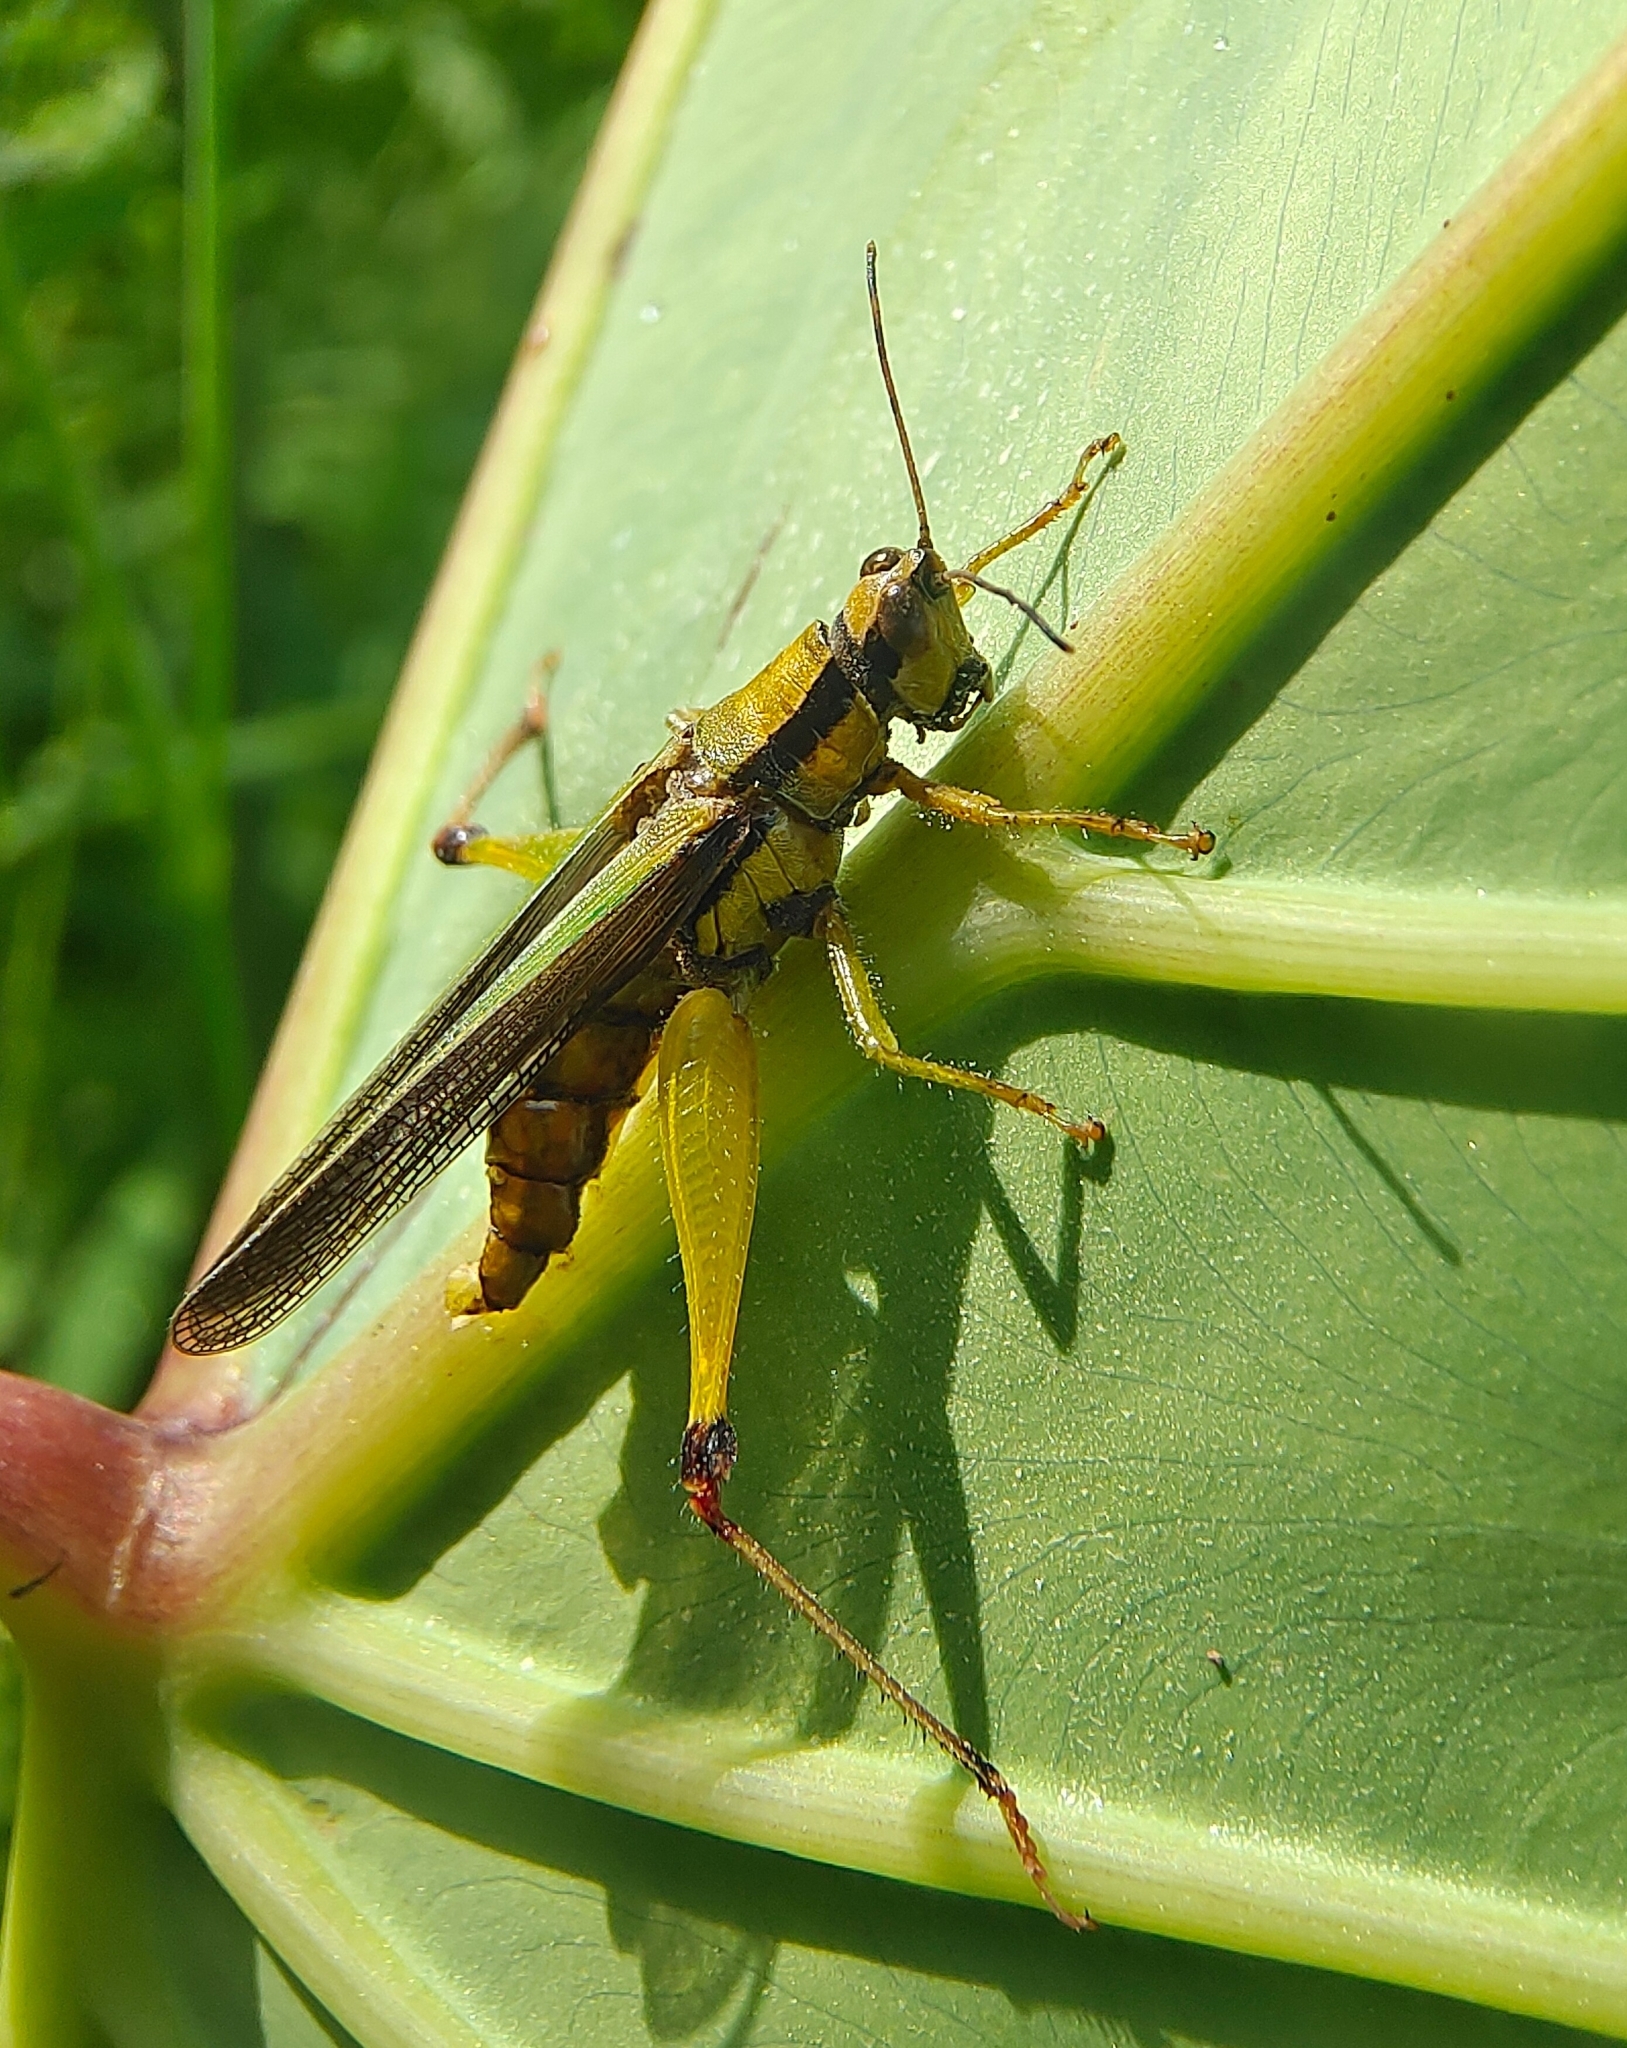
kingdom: Animalia
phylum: Arthropoda
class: Insecta
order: Orthoptera
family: Acrididae
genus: Gesonula
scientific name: Gesonula mundata
